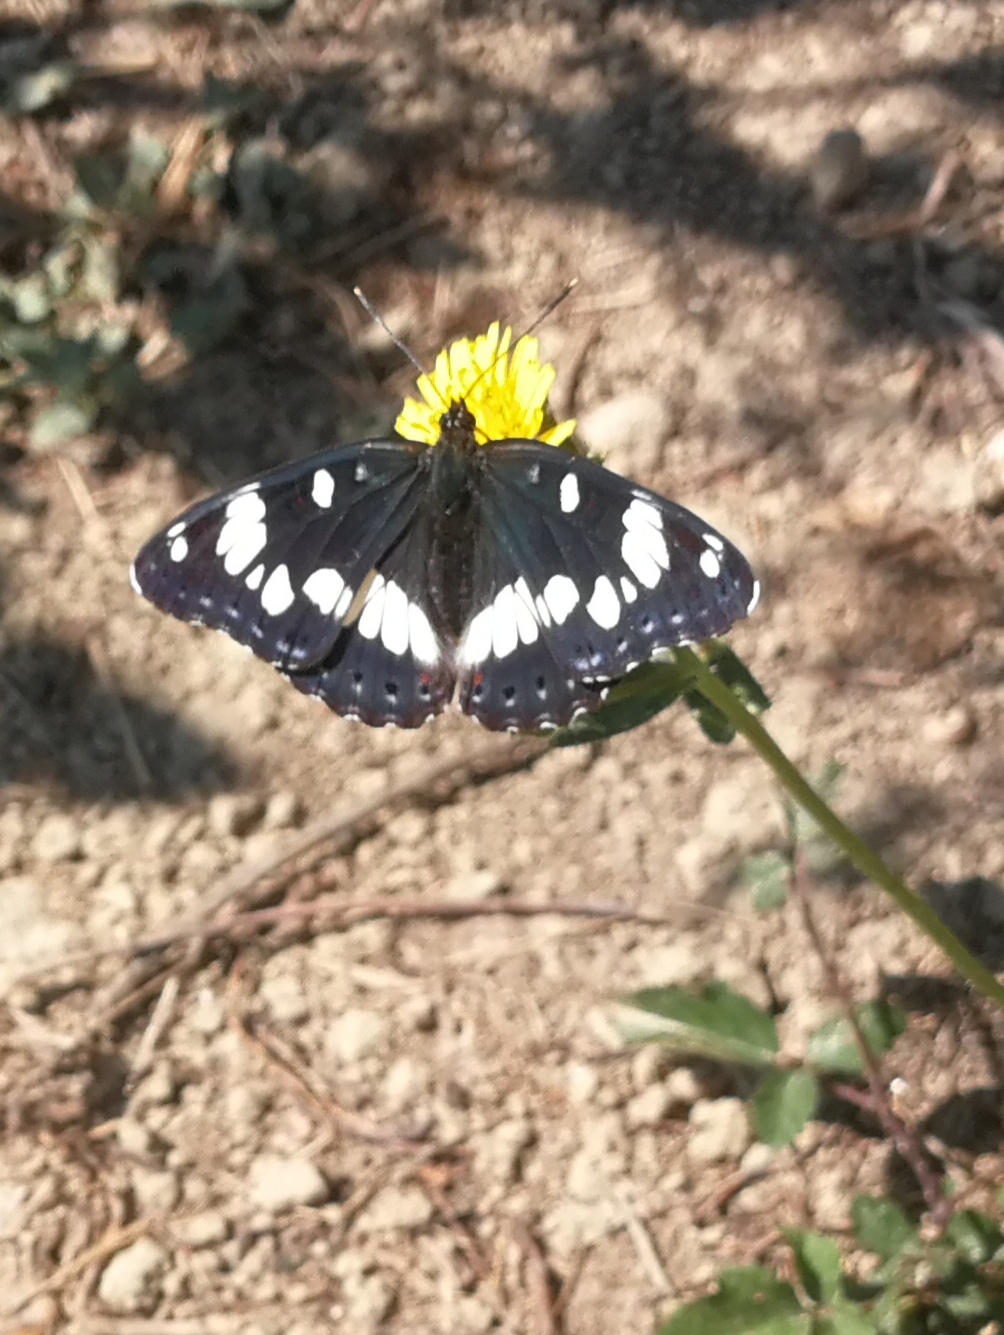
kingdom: Animalia
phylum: Arthropoda
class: Insecta
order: Lepidoptera
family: Nymphalidae
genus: Limenitis
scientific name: Limenitis reducta
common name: Southern white admiral
